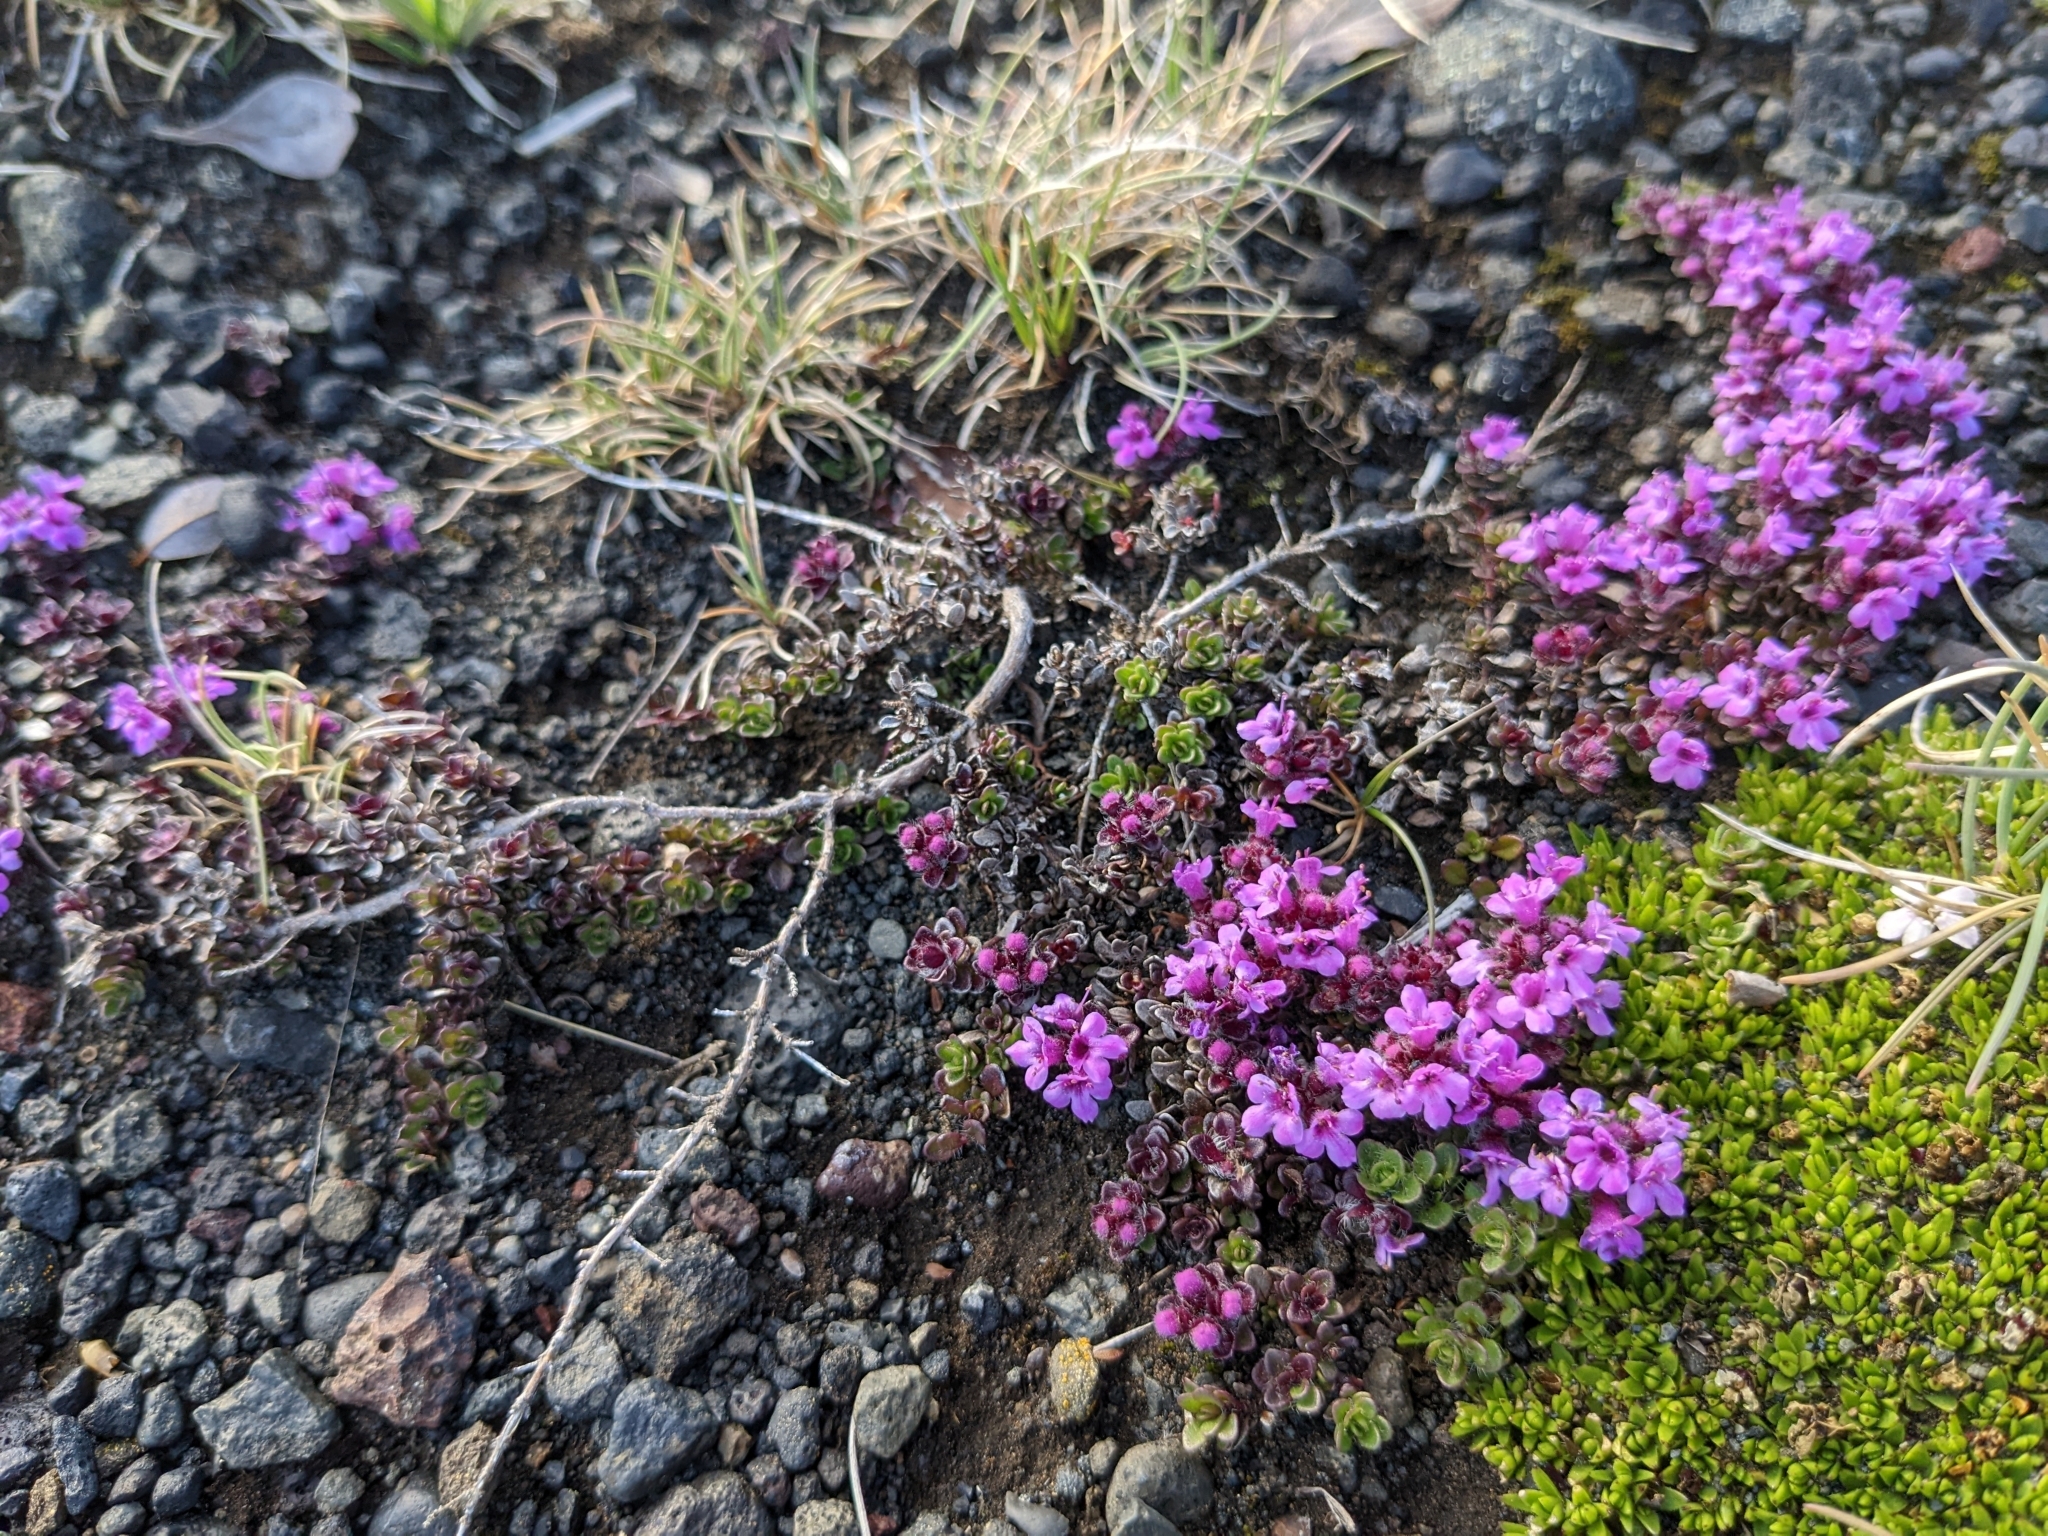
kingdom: Plantae
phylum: Tracheophyta
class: Magnoliopsida
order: Lamiales
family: Lamiaceae
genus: Thymus
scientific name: Thymus praecox
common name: Wild thyme
